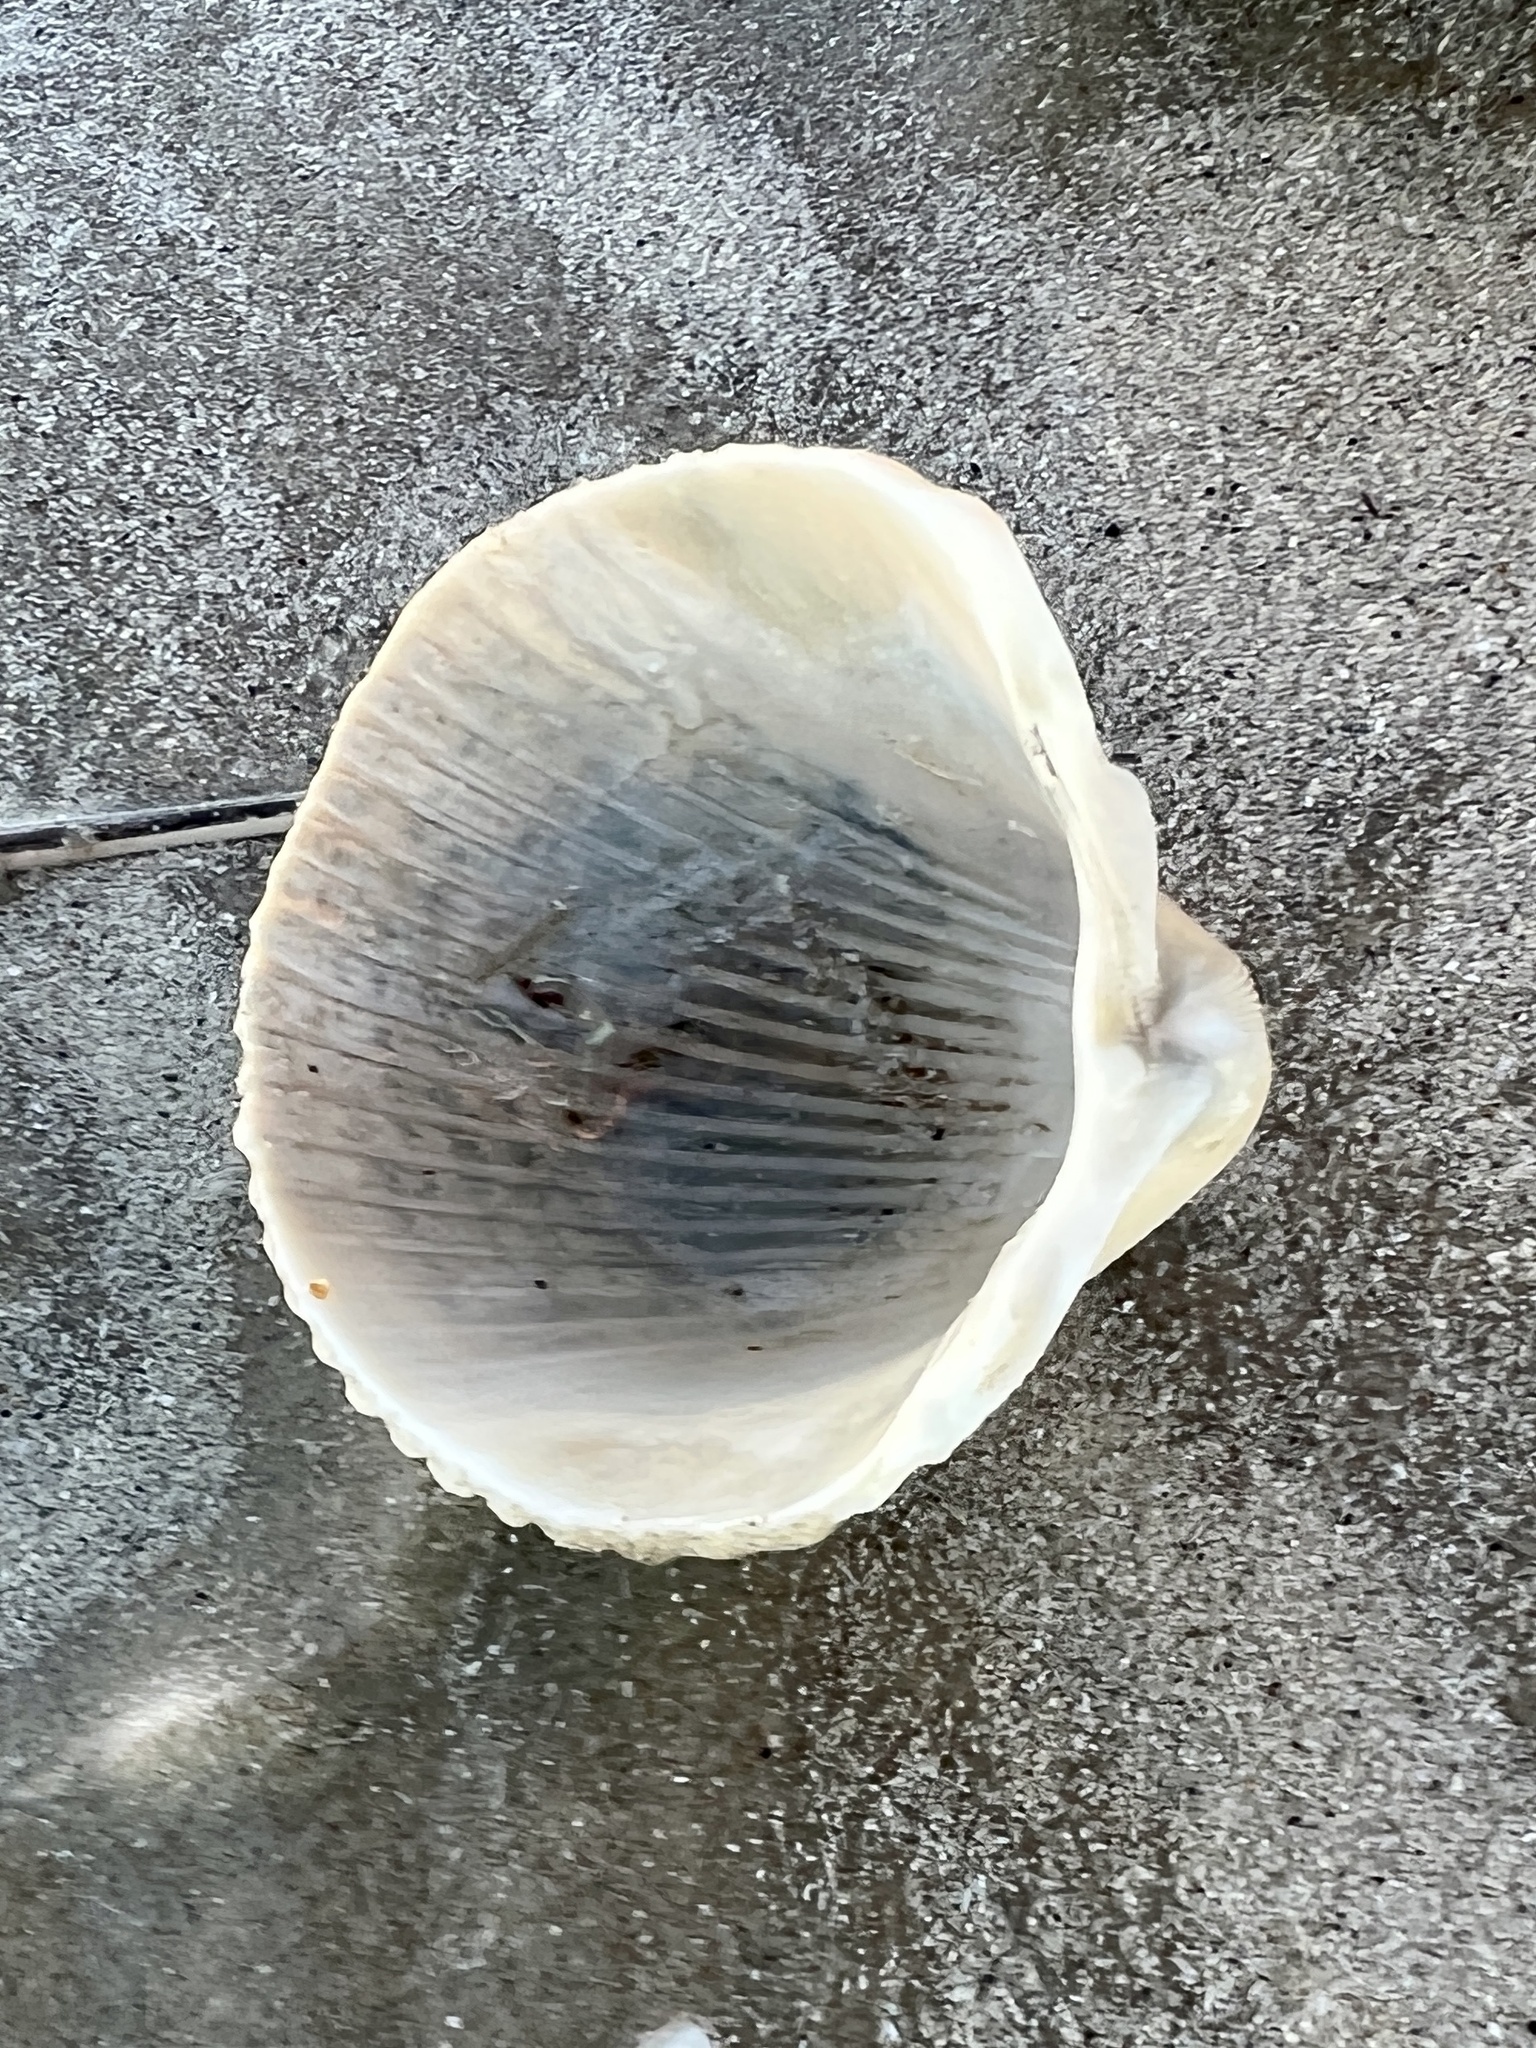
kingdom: Animalia
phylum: Mollusca
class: Bivalvia
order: Cardiida
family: Cardiidae
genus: Dinocardium
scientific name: Dinocardium robustum
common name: Atlantic giant cockle
